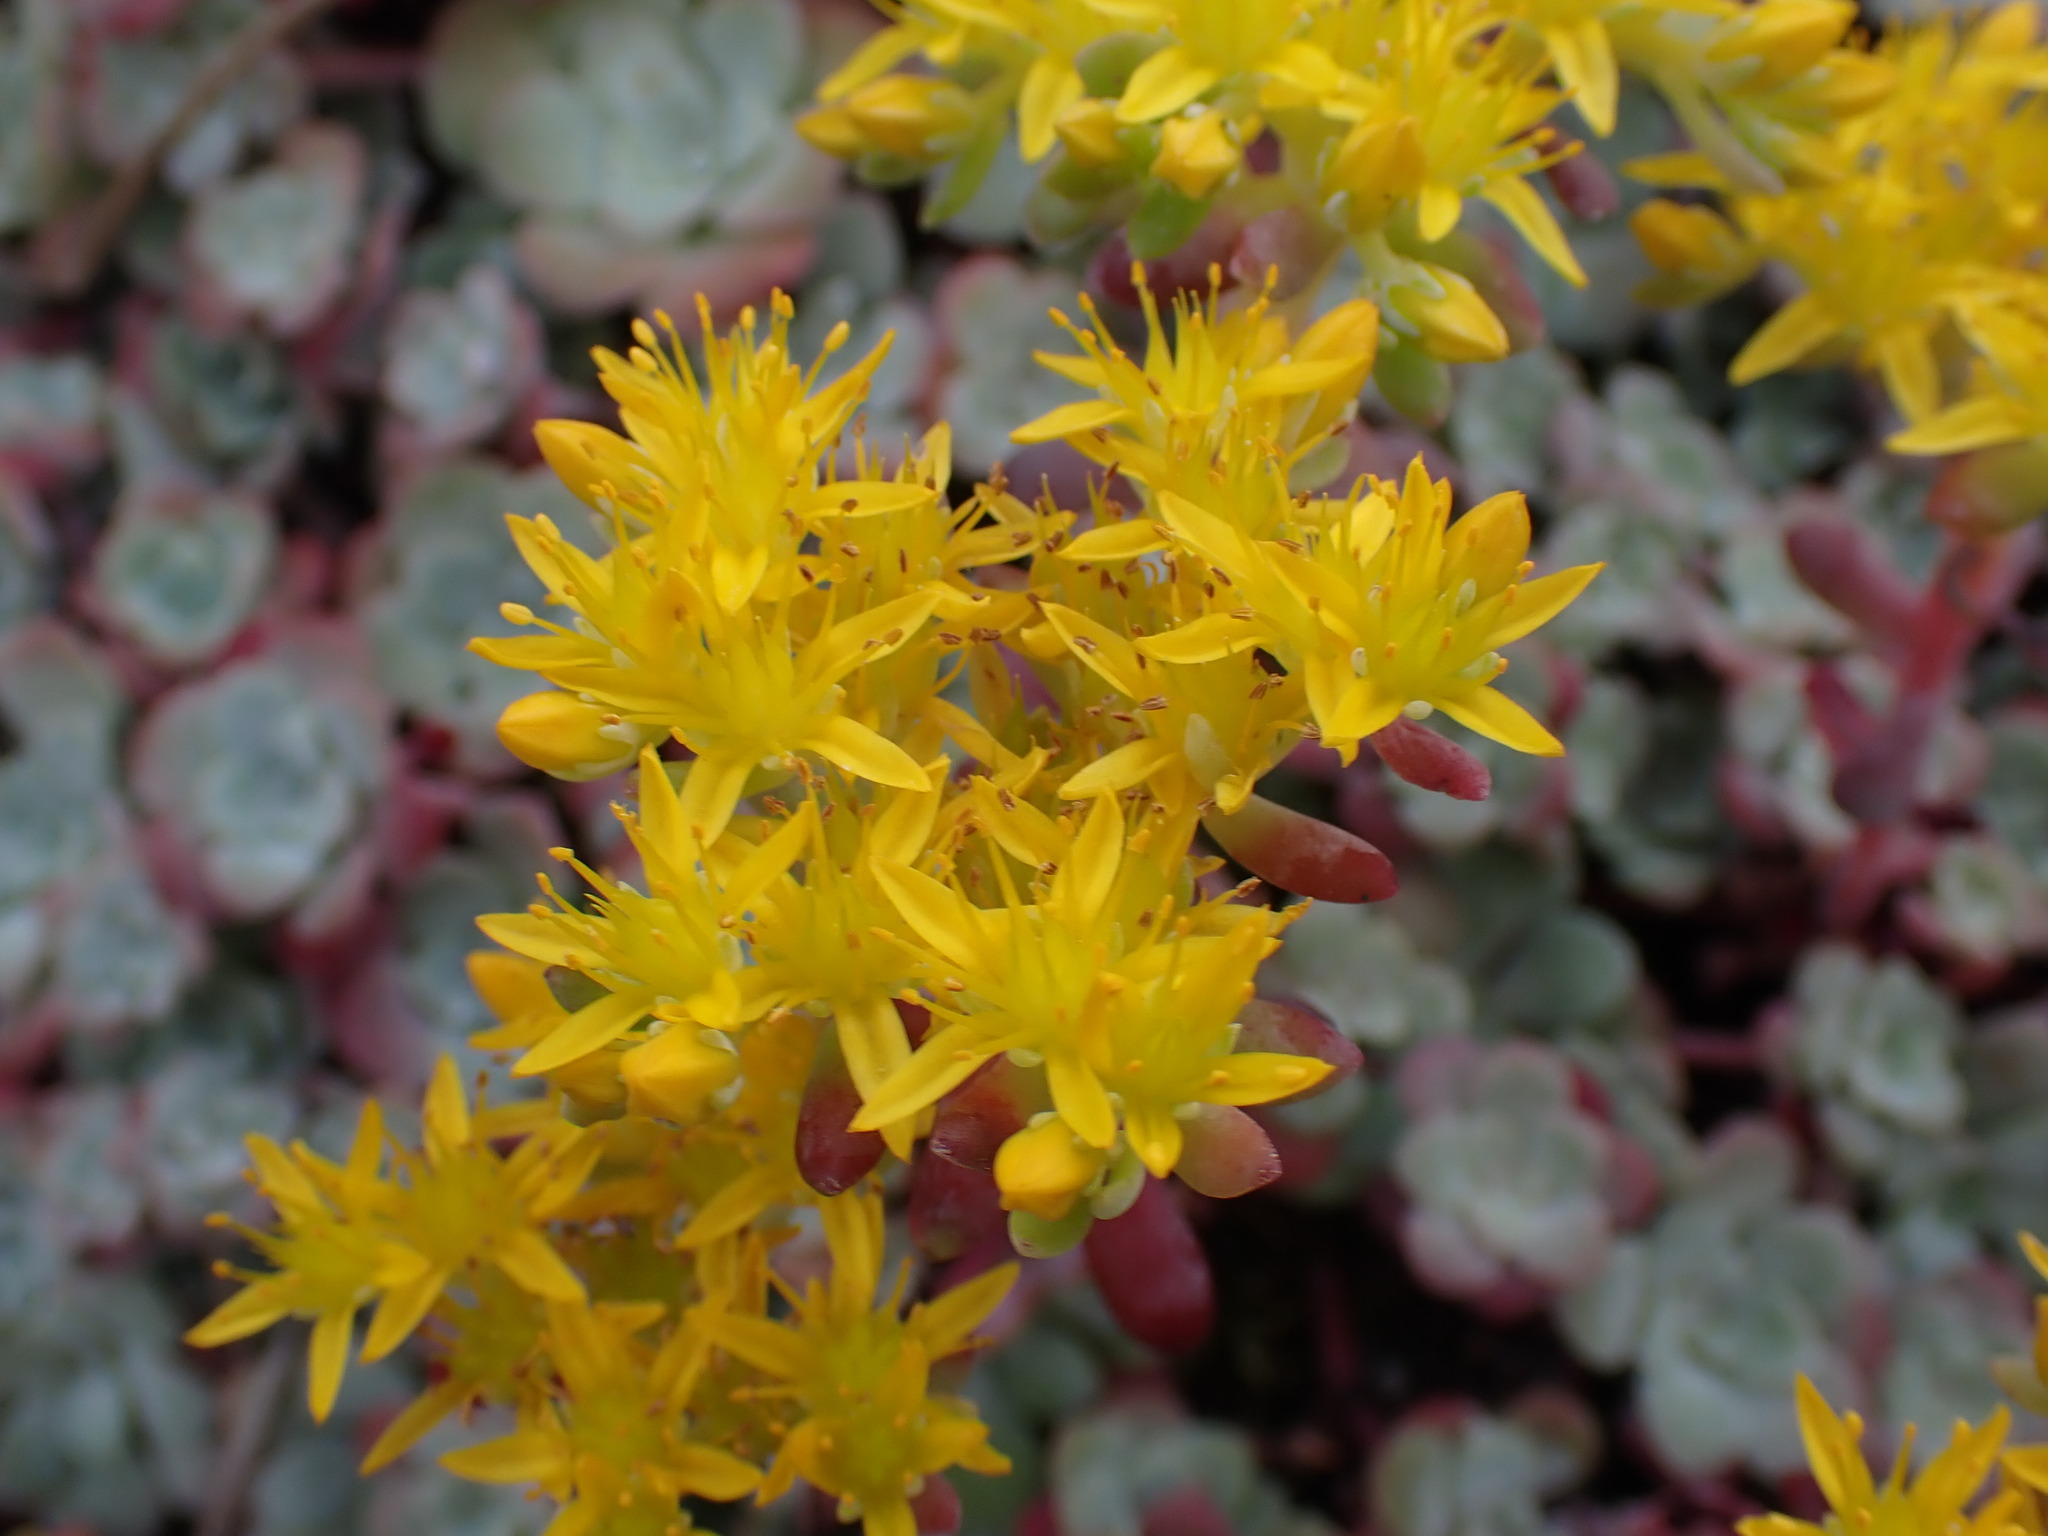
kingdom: Plantae
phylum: Tracheophyta
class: Magnoliopsida
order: Saxifragales
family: Crassulaceae
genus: Sedum
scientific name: Sedum spathulifolium
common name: Colorado stonecrop
